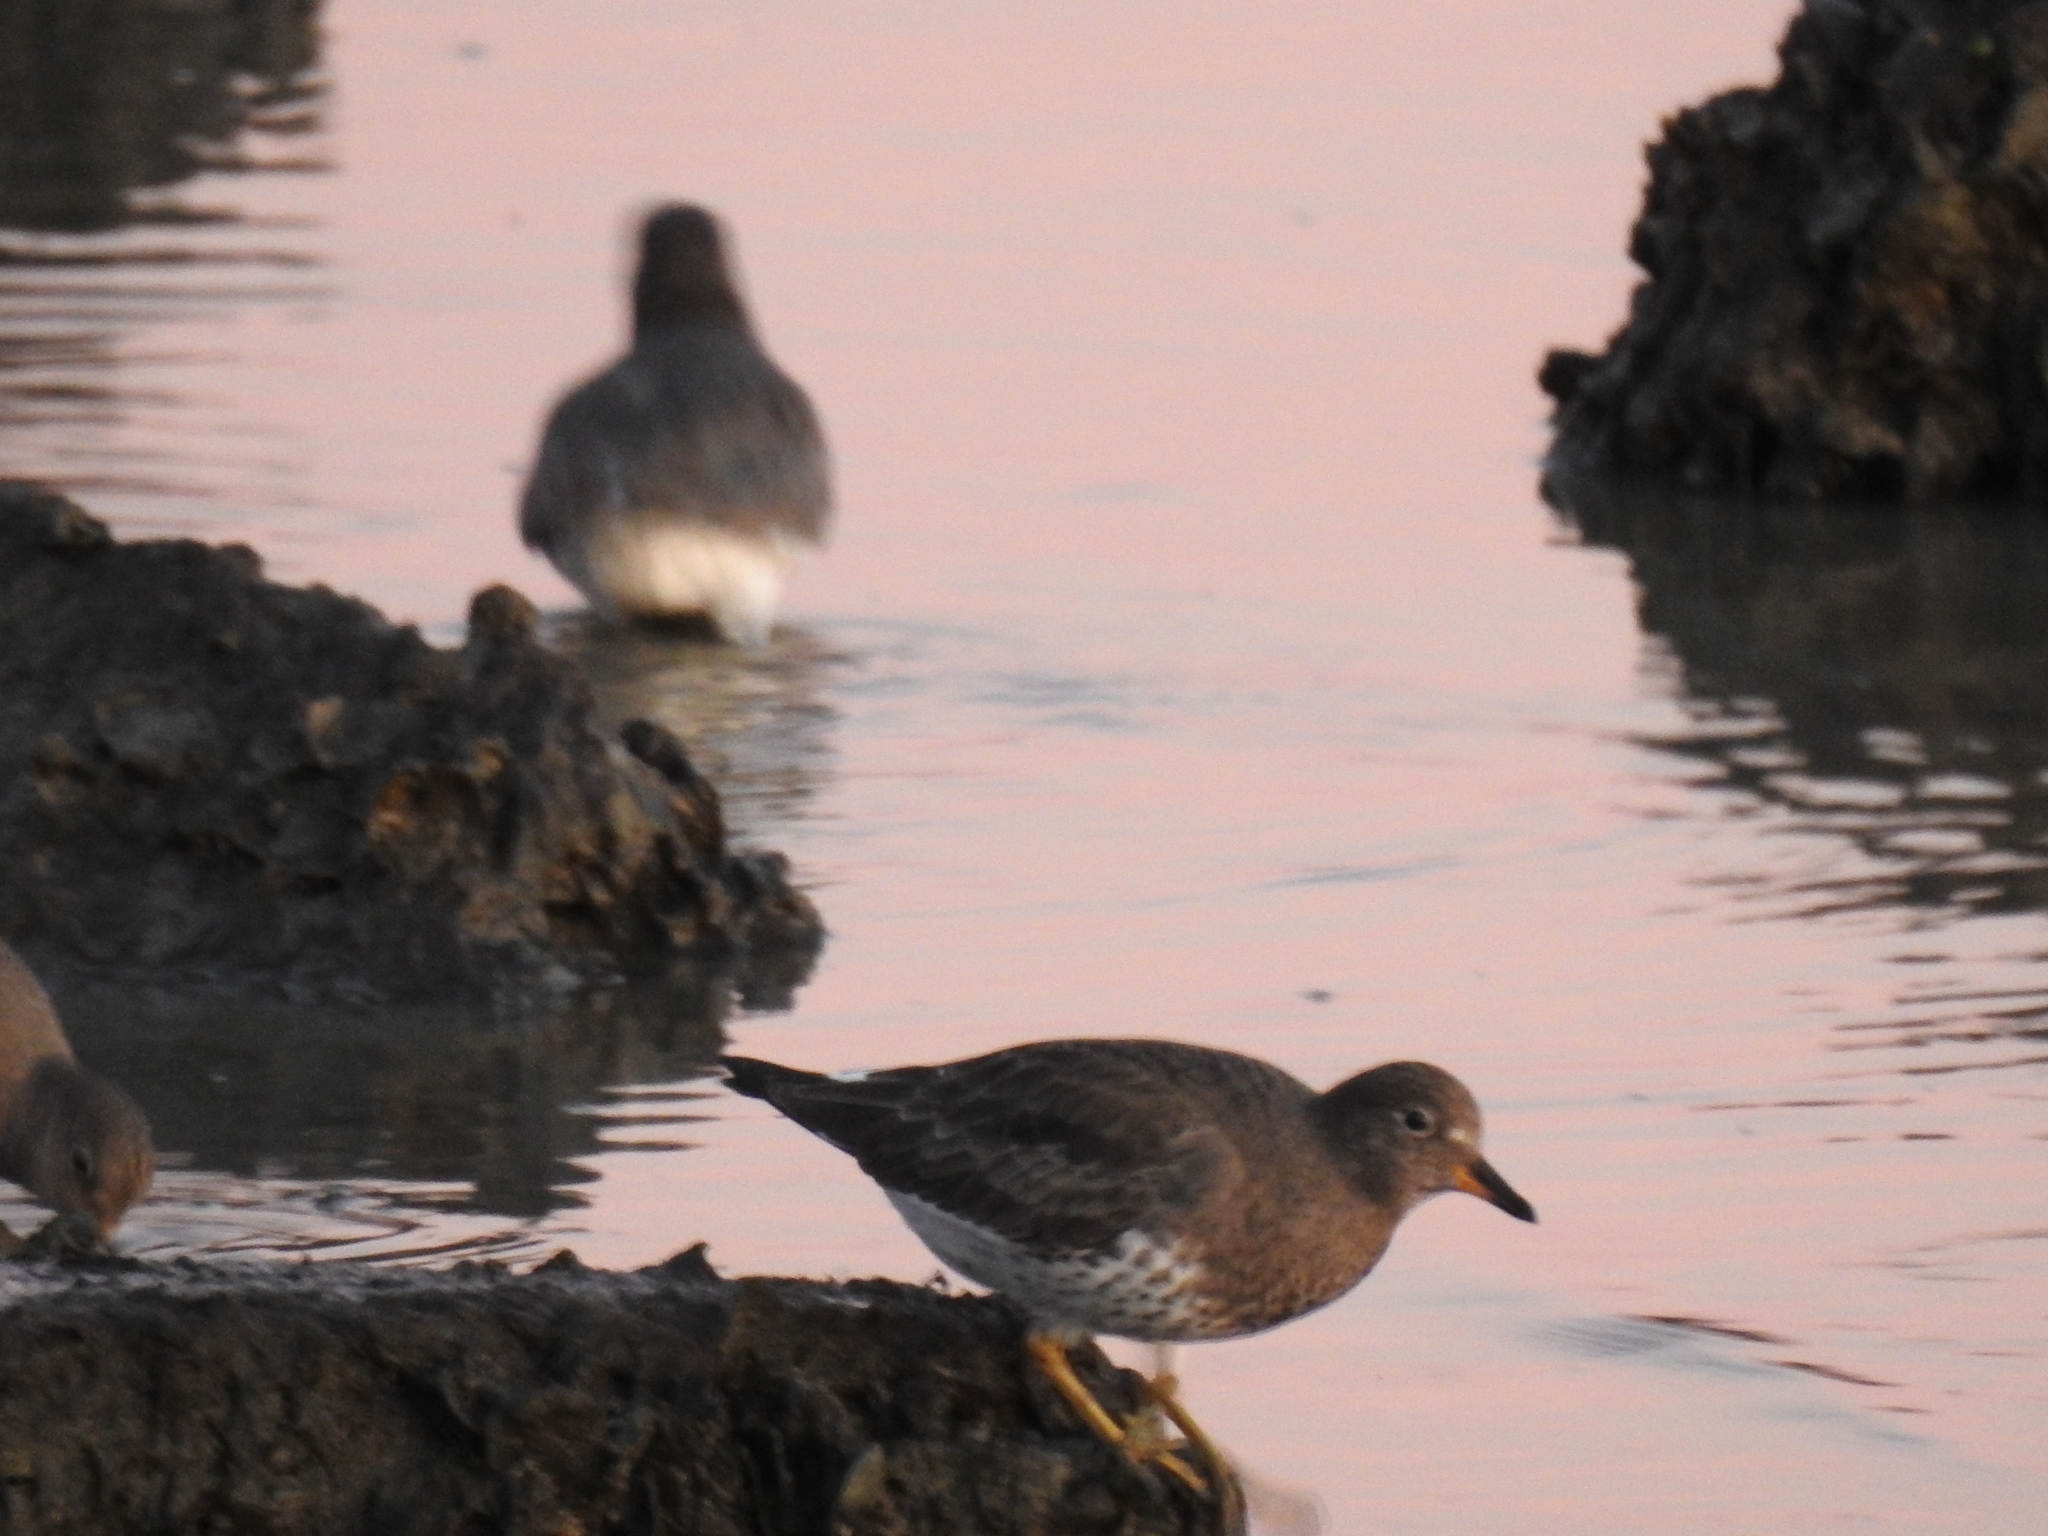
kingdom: Animalia
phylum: Chordata
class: Aves
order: Charadriiformes
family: Scolopacidae
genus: Calidris
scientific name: Calidris virgata
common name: Surfbird
